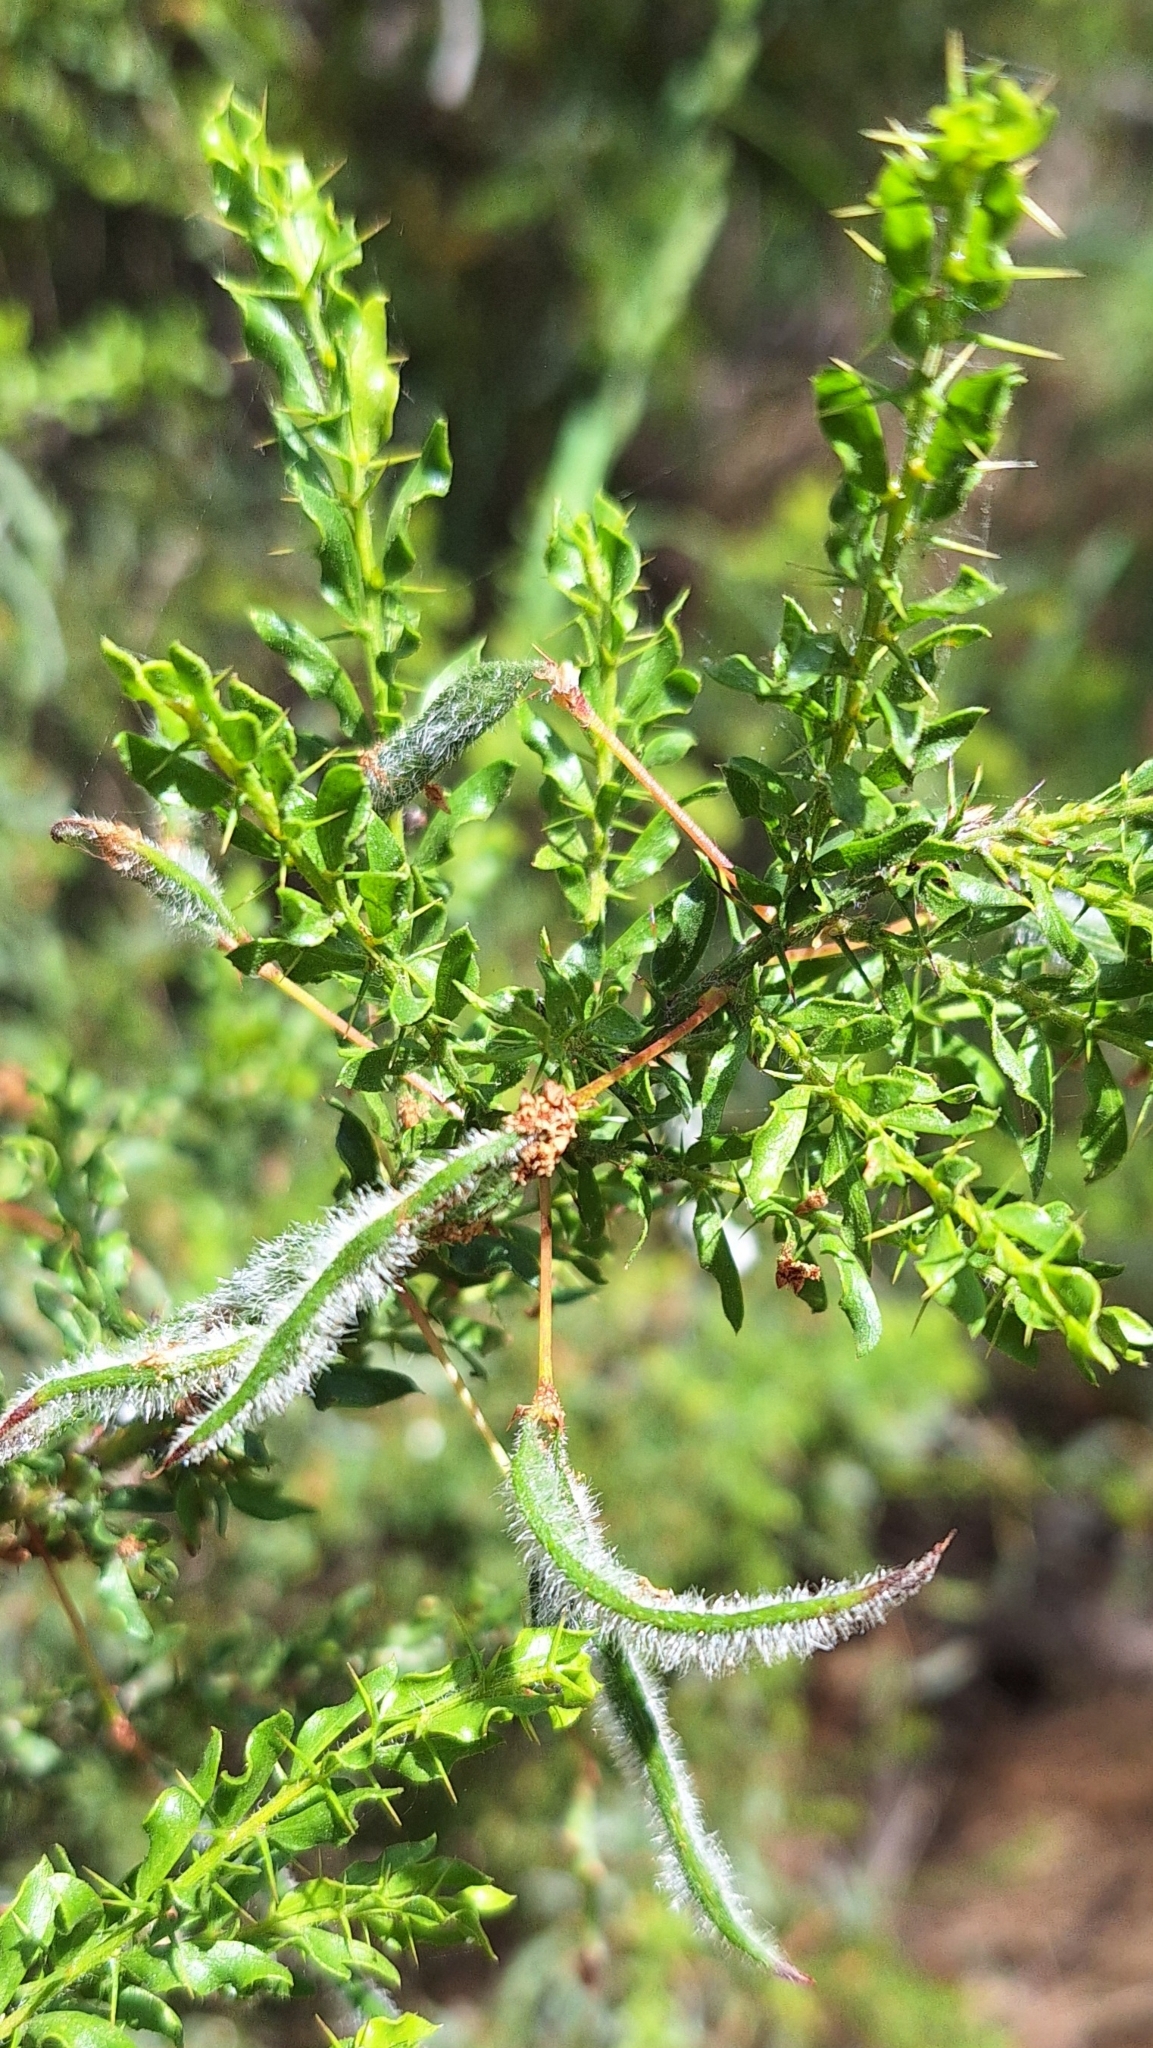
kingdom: Plantae
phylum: Tracheophyta
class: Magnoliopsida
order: Fabales
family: Fabaceae
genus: Acacia
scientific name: Acacia paradoxa
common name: Paradox acacia
